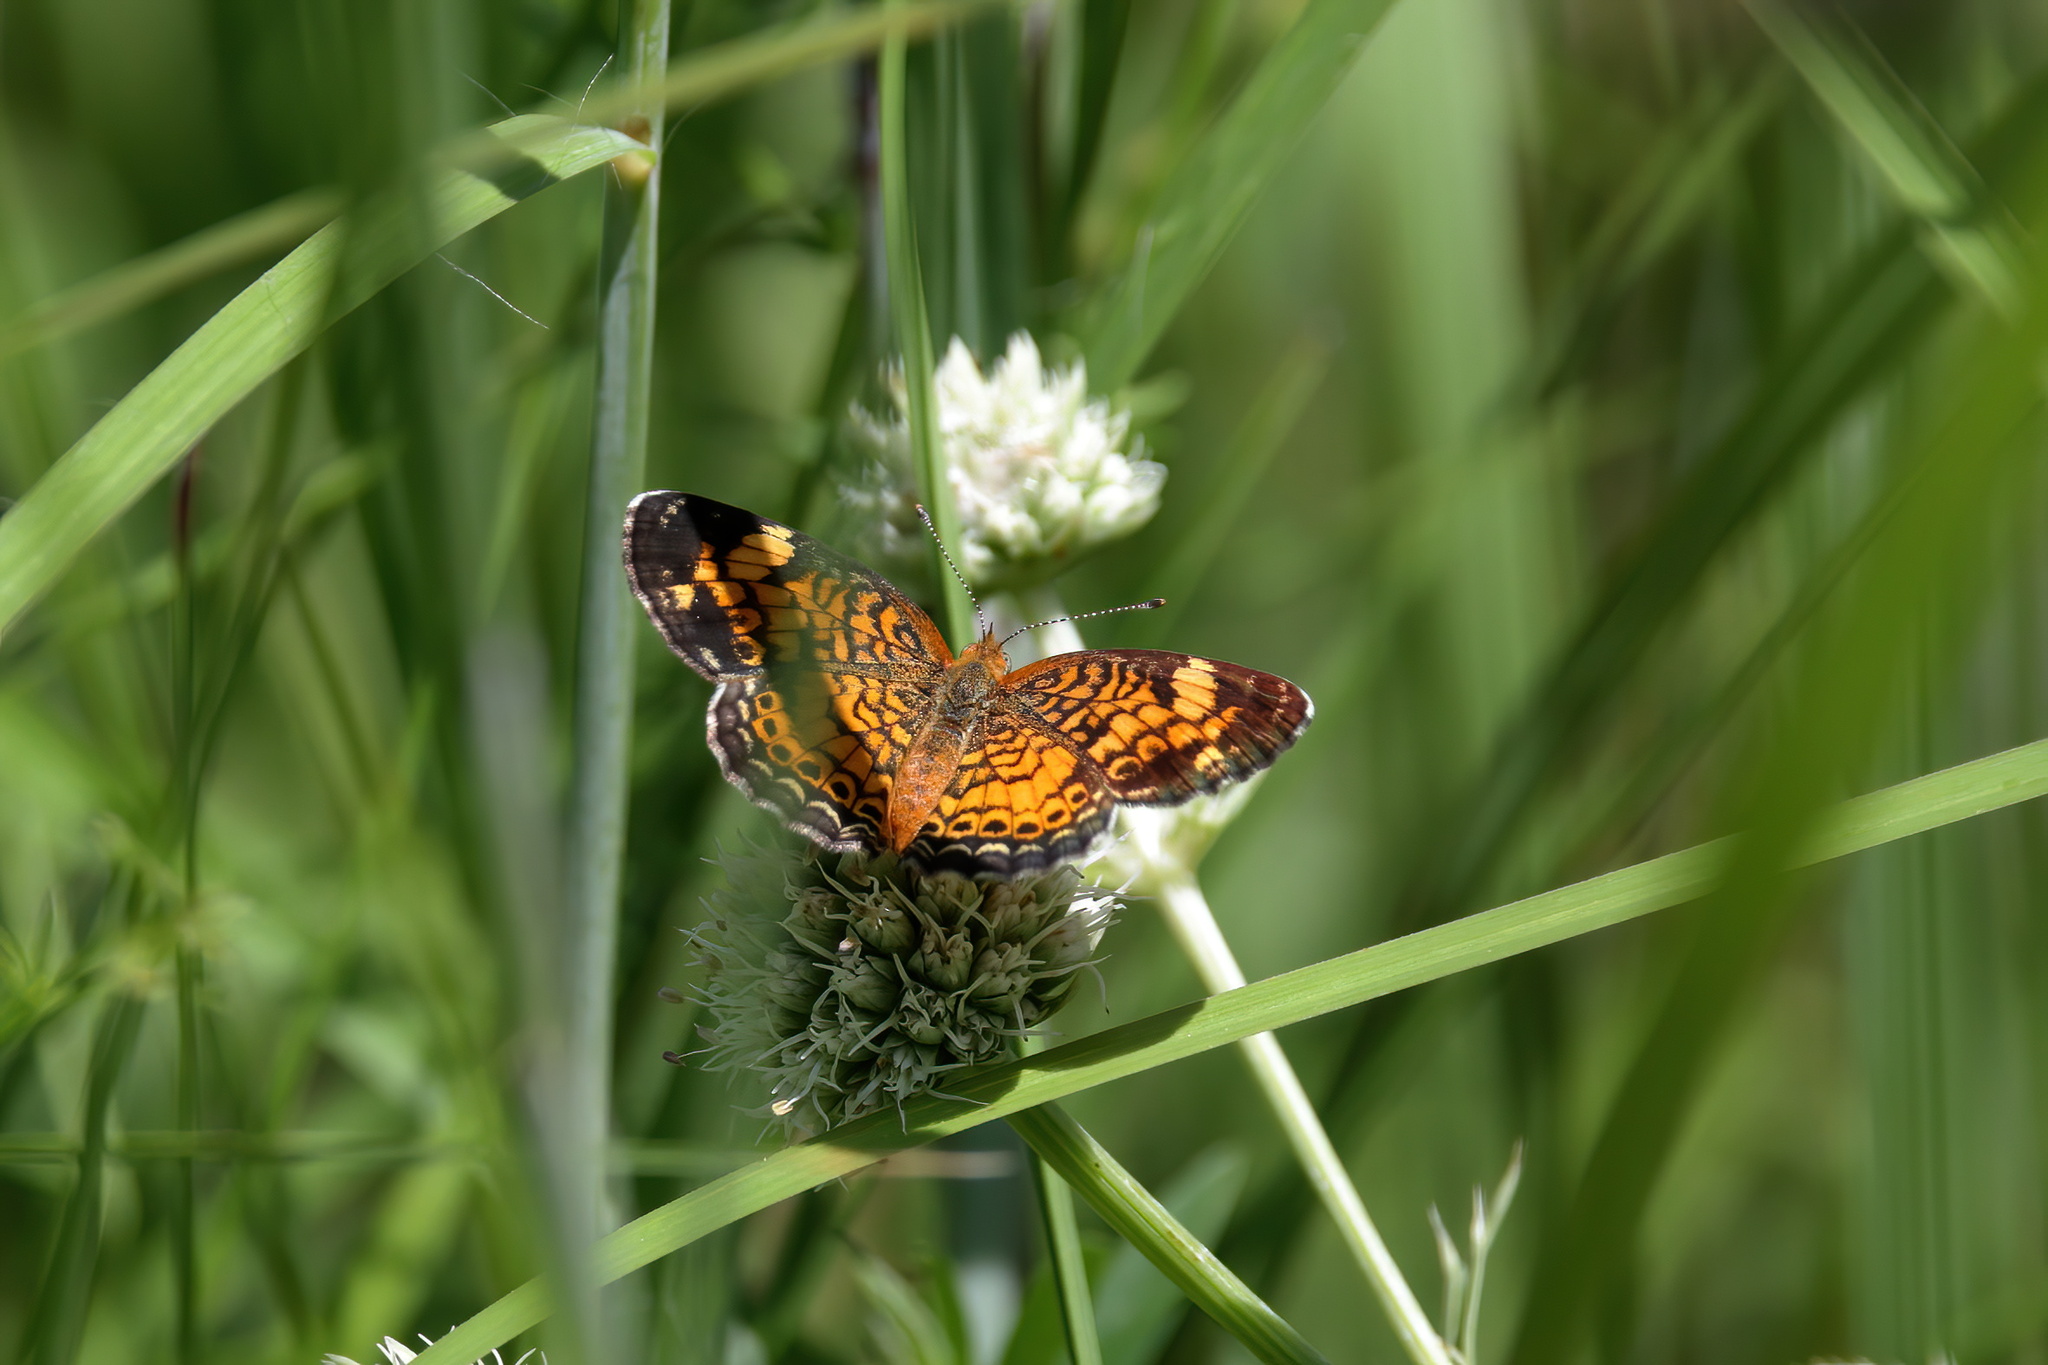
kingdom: Animalia
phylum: Arthropoda
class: Insecta
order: Lepidoptera
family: Nymphalidae
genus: Phyciodes
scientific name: Phyciodes tharos
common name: Pearl crescent
